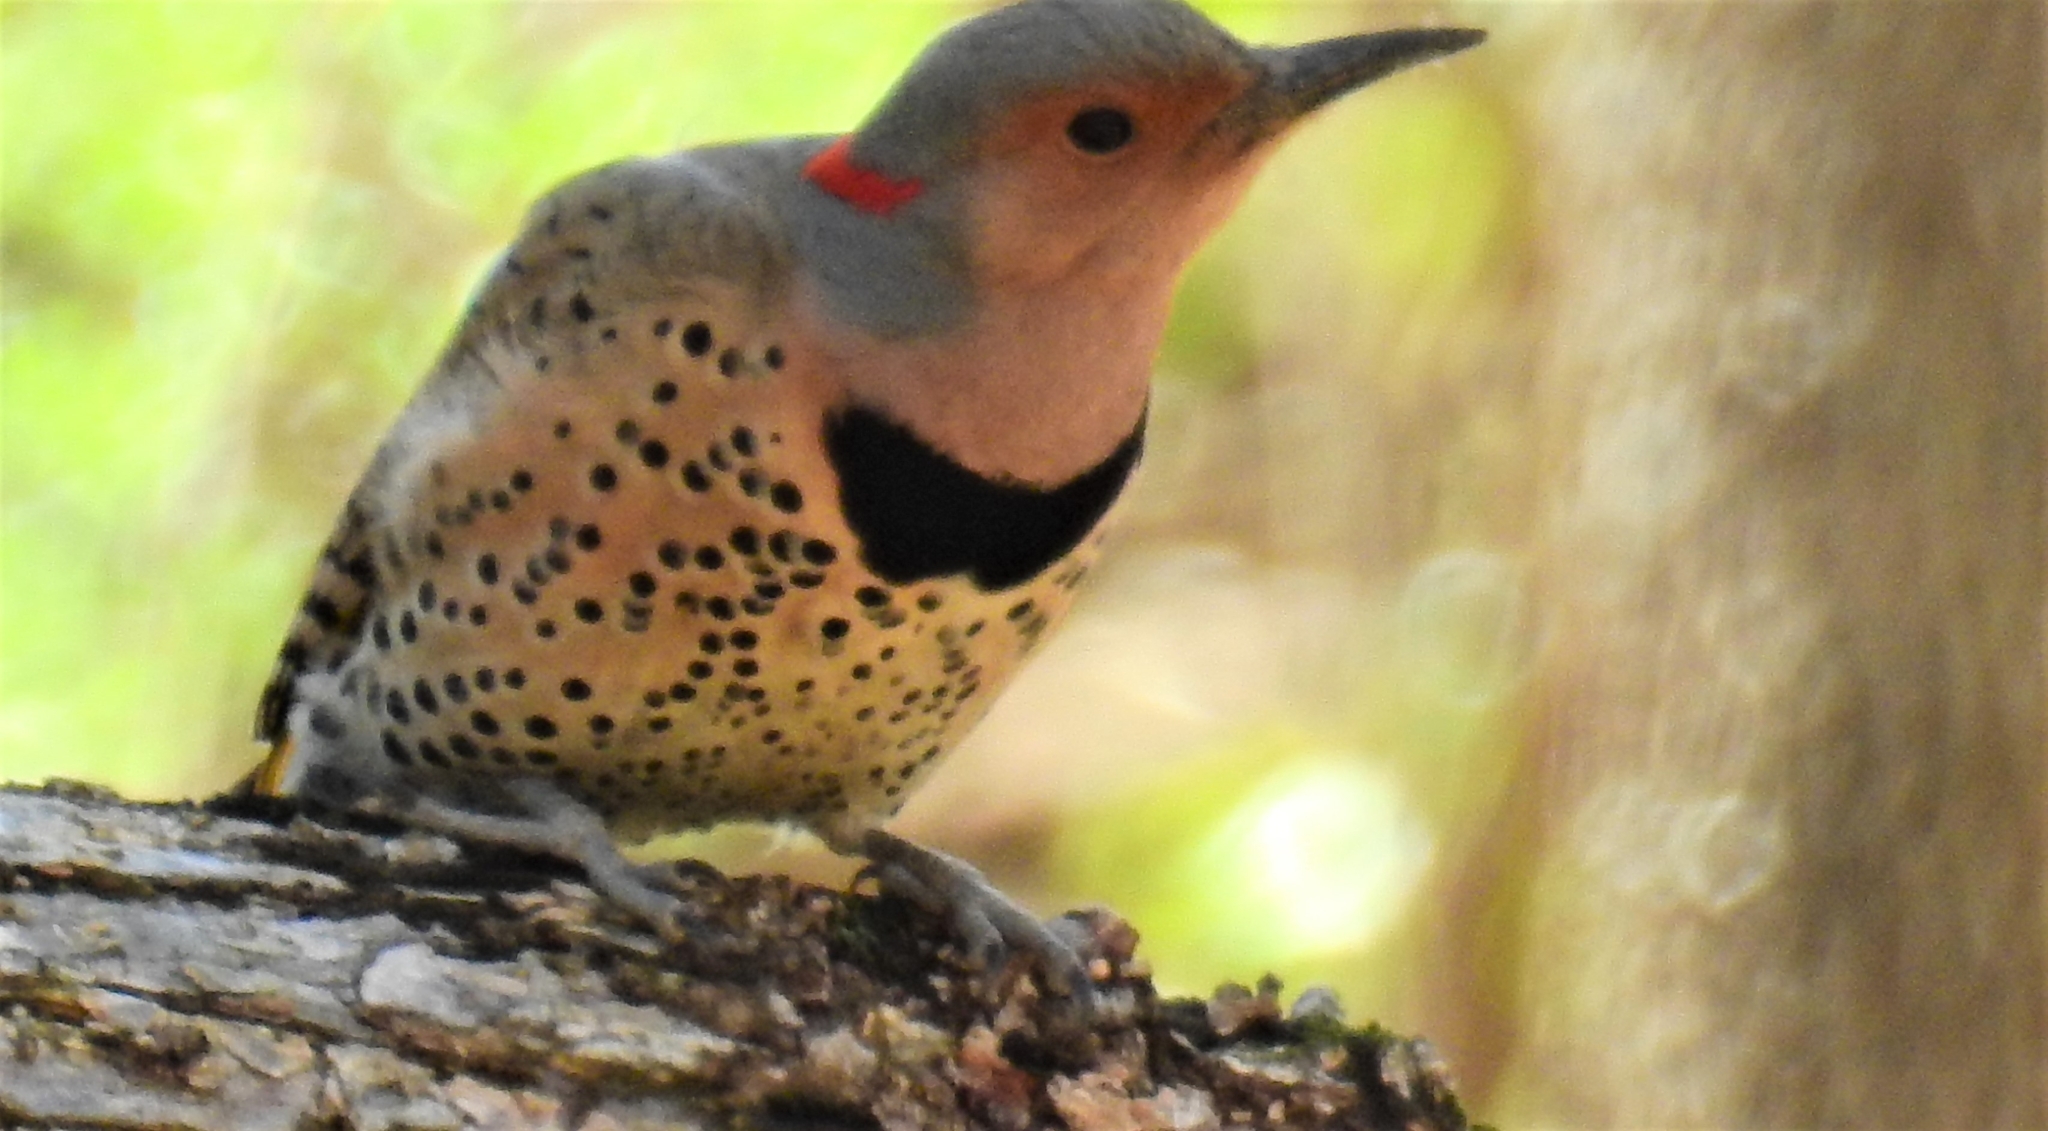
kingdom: Animalia
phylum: Chordata
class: Aves
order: Piciformes
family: Picidae
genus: Colaptes
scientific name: Colaptes auratus
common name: Northern flicker
